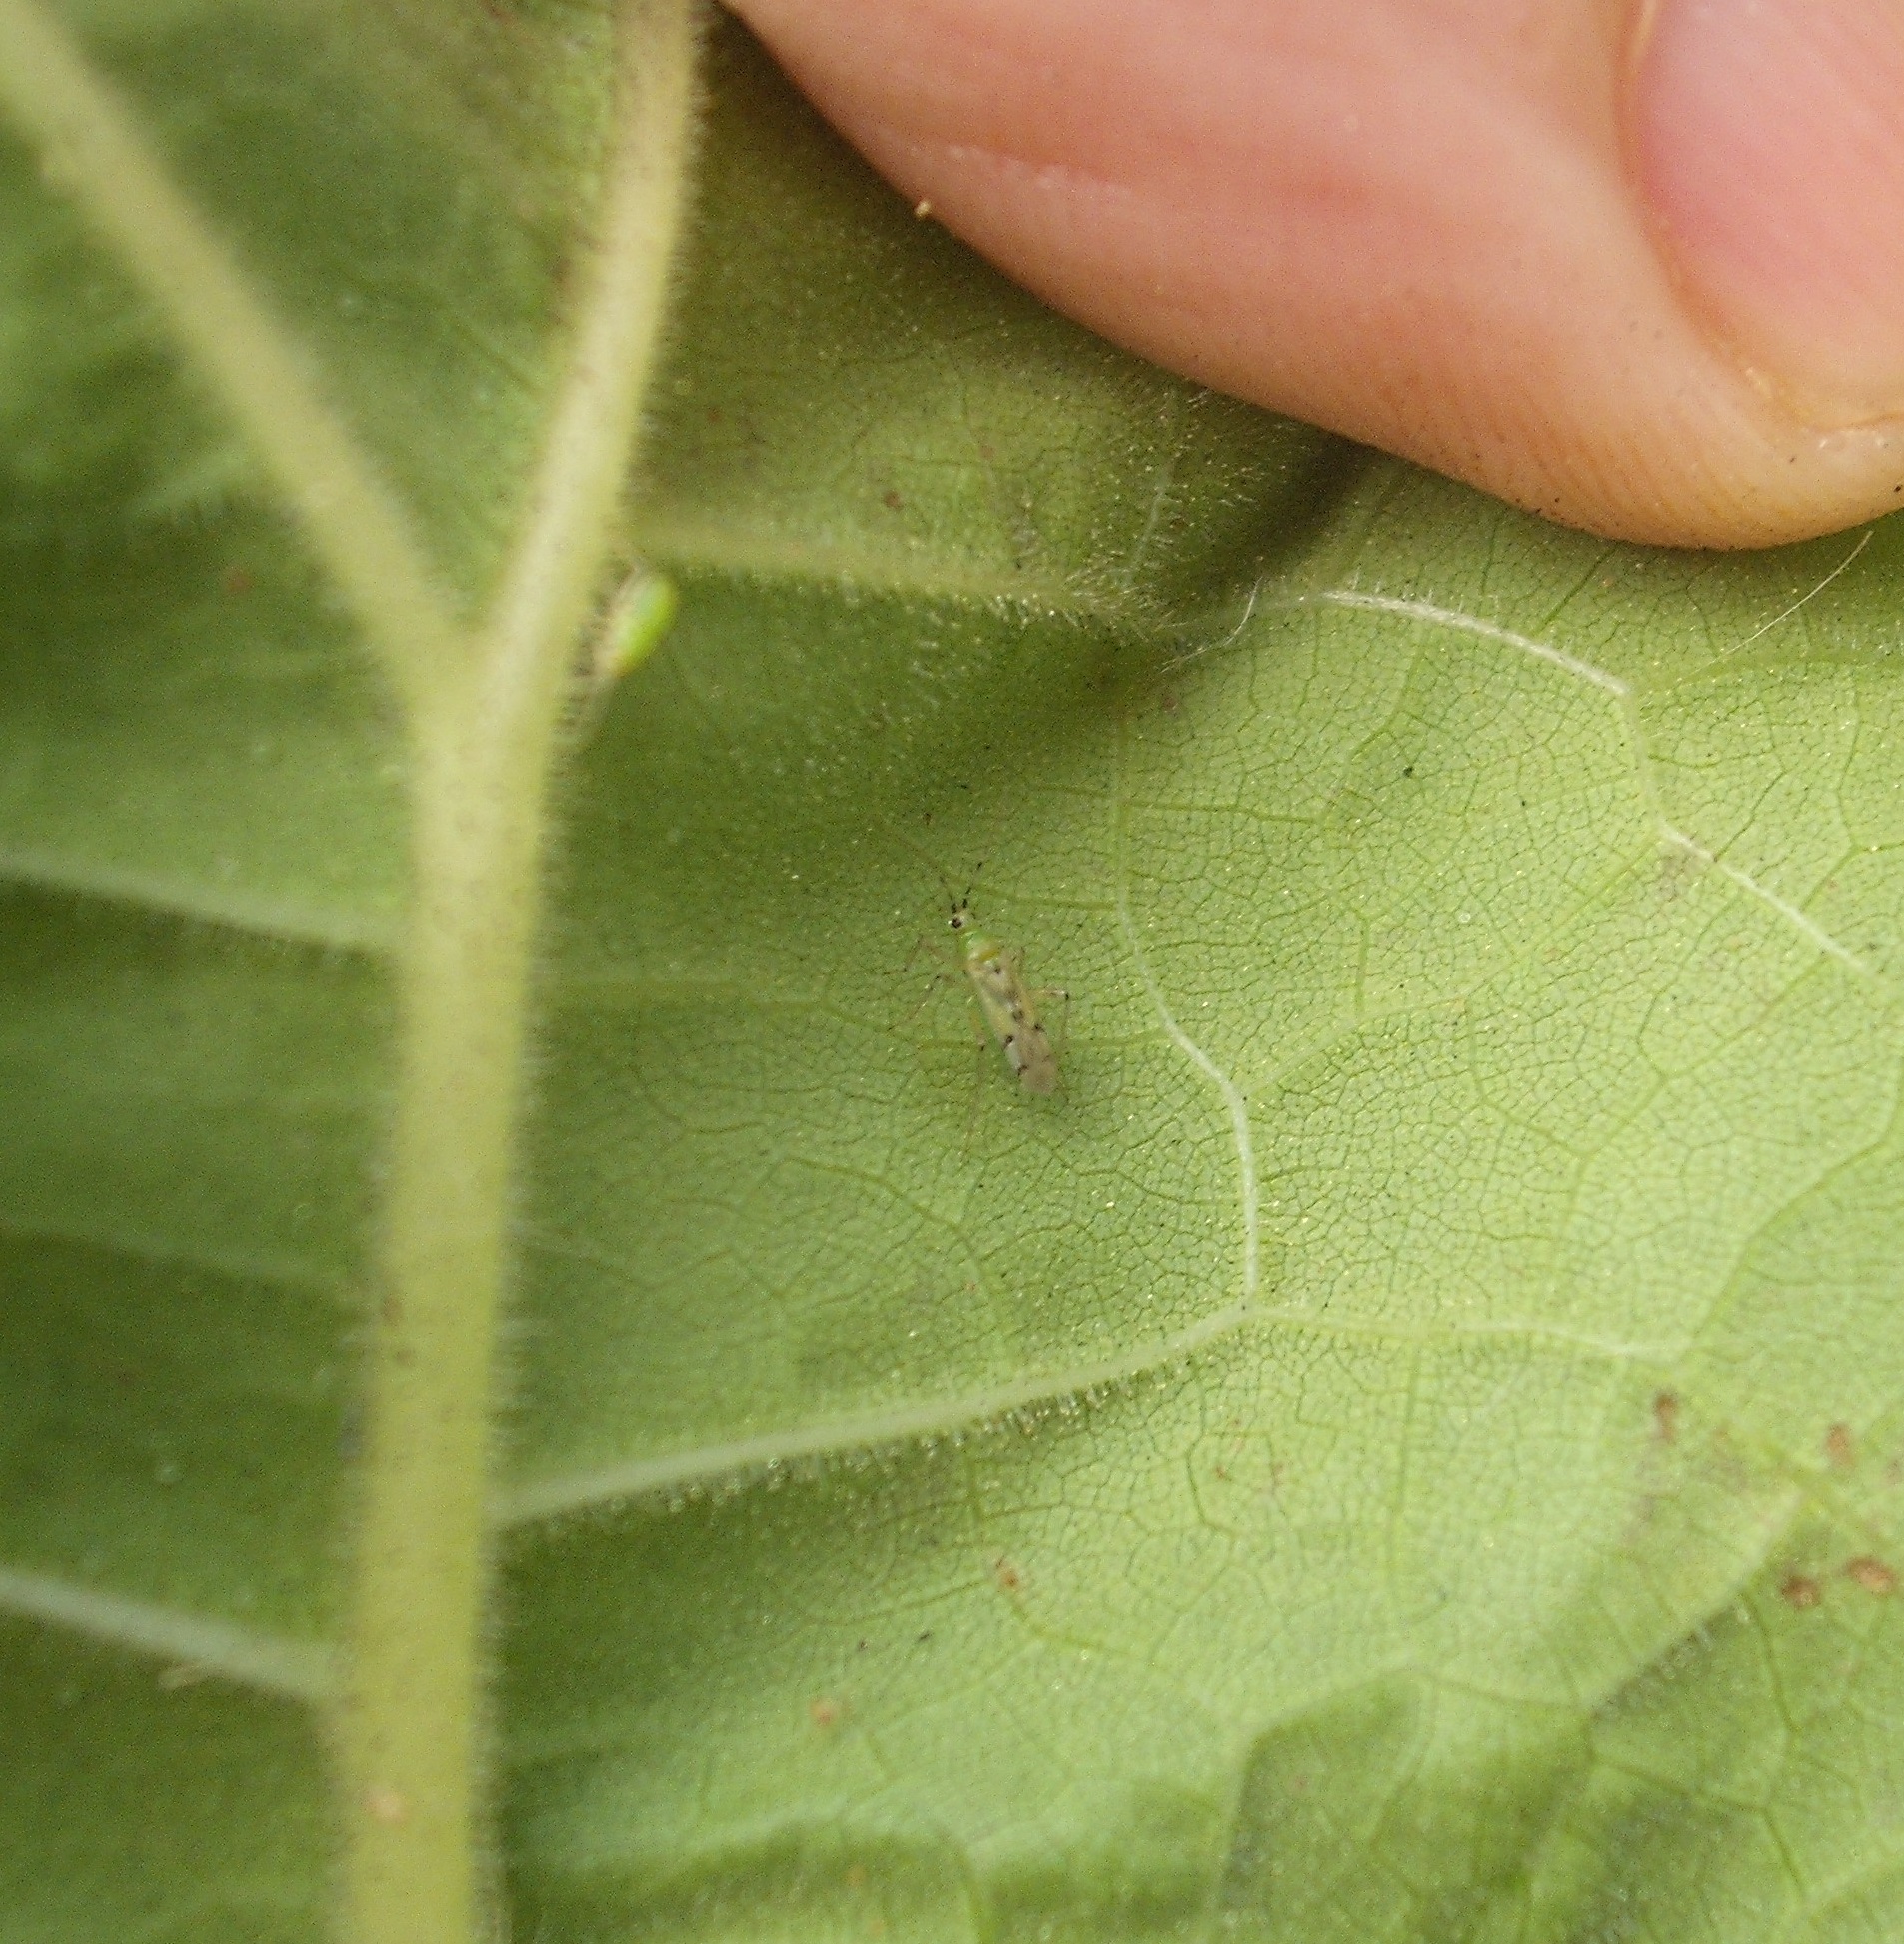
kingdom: Animalia
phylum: Arthropoda
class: Insecta
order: Hemiptera
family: Miridae
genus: Engytatus
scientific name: Engytatus nicotianae
